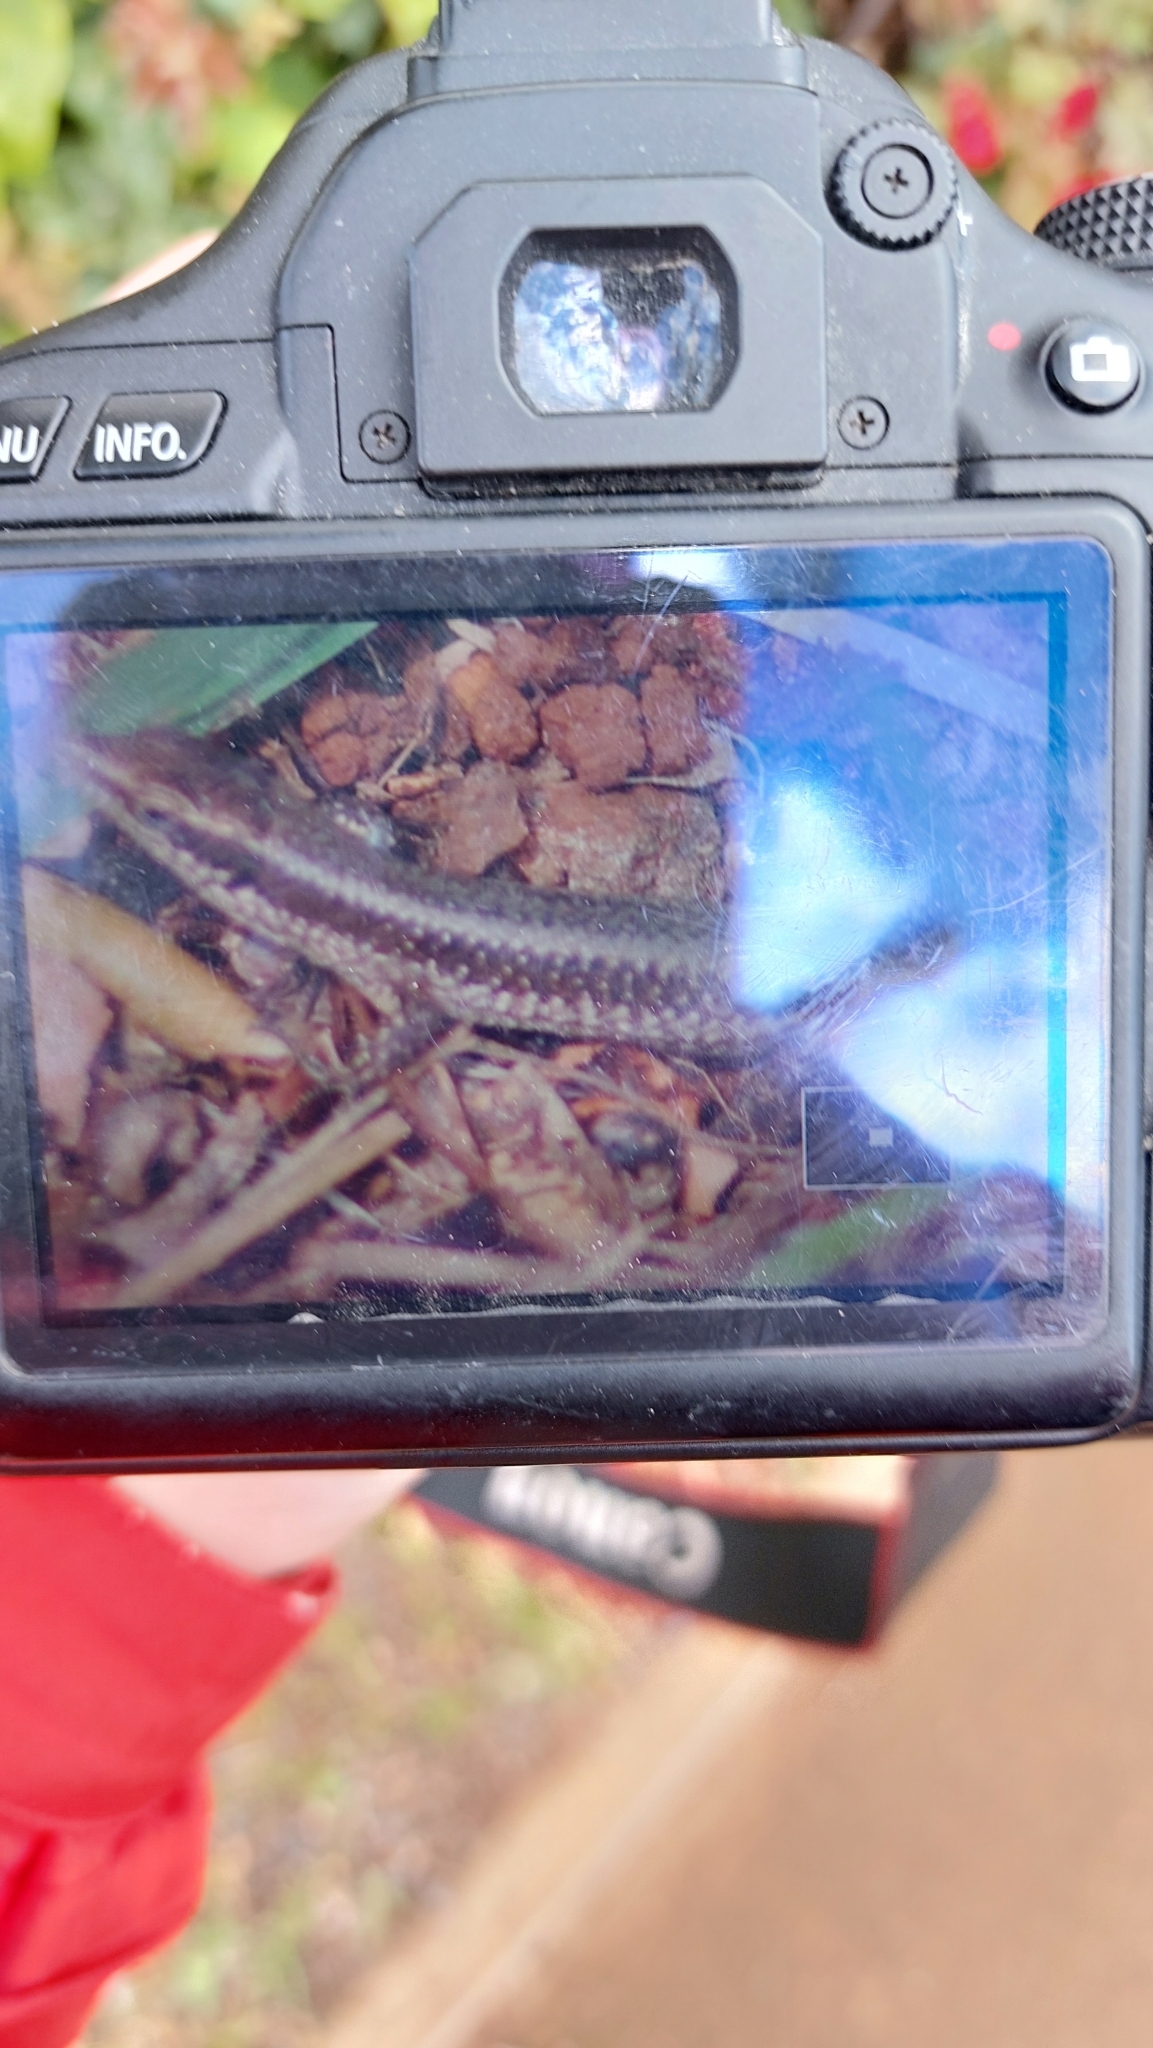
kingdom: Animalia
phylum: Chordata
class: Squamata
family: Lacertidae
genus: Teira
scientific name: Teira dugesii
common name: Madeira lizard
